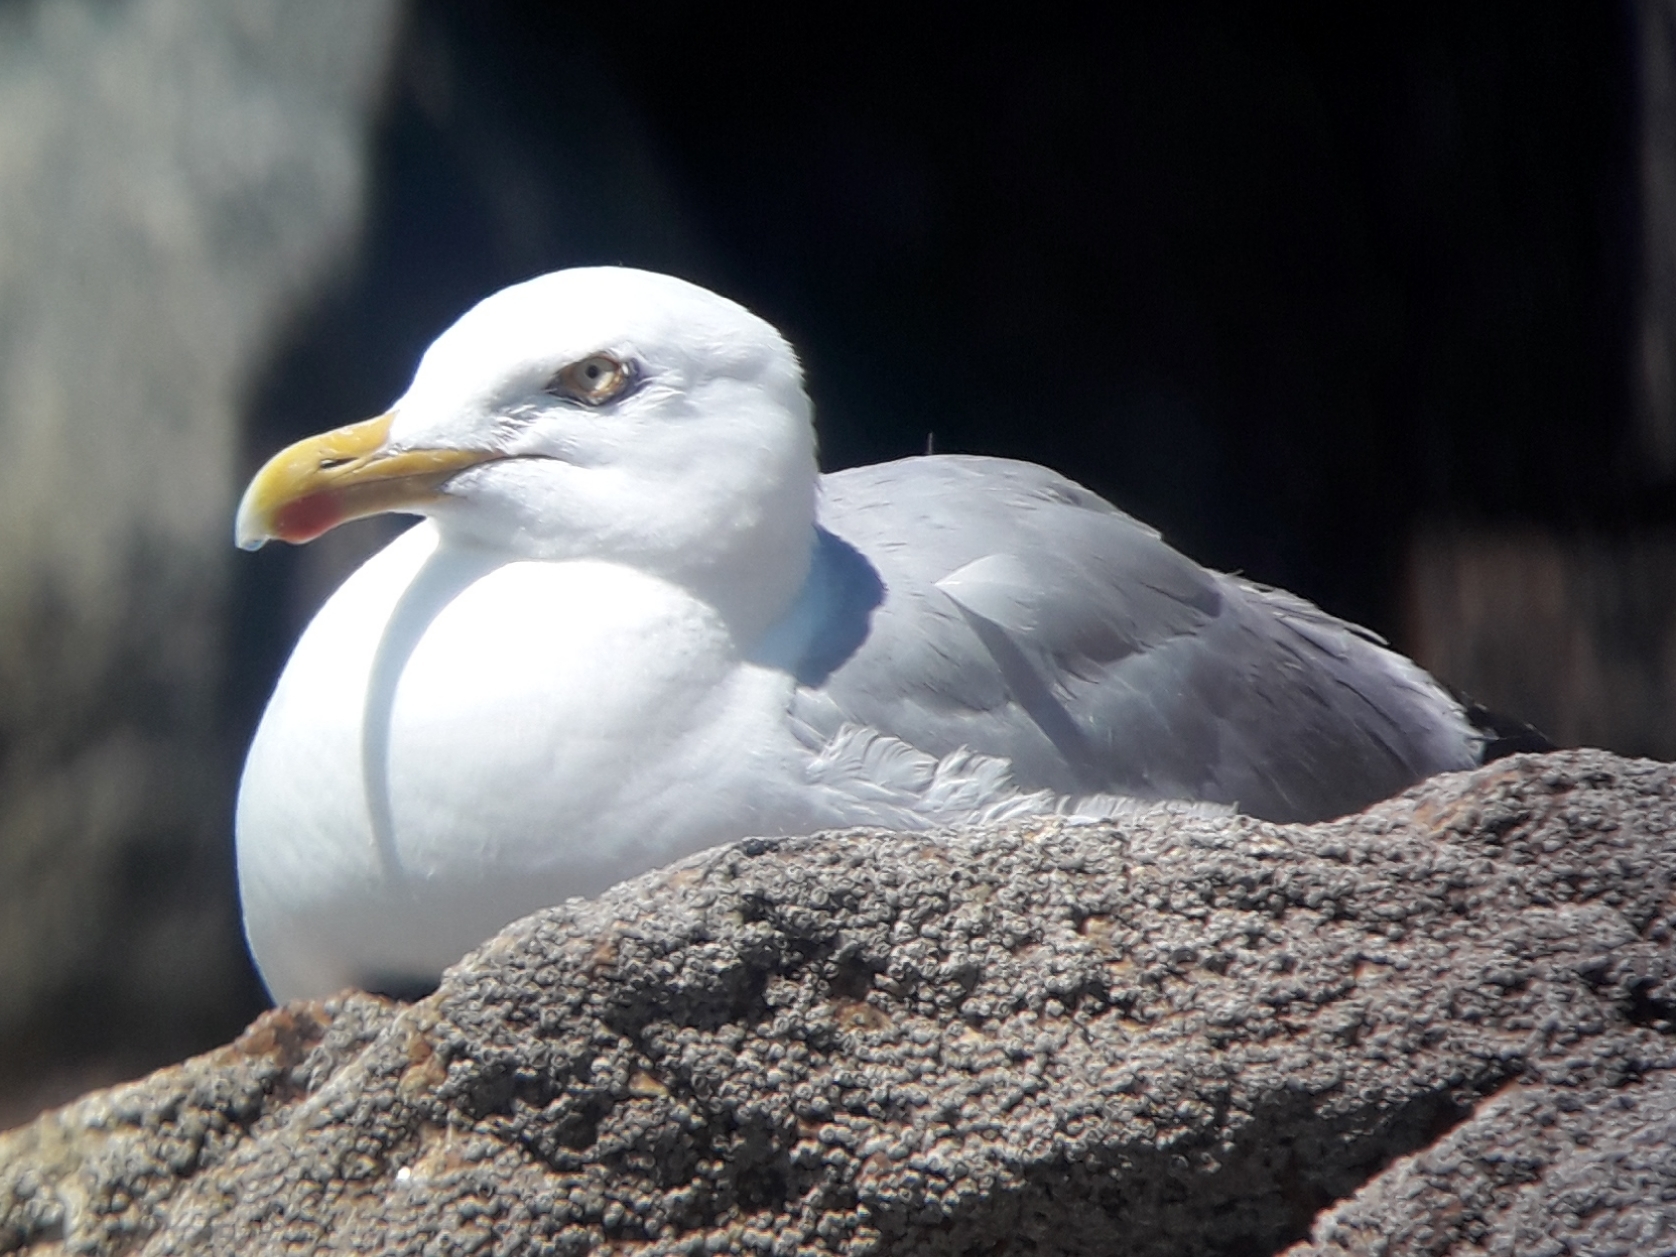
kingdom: Animalia
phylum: Chordata
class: Aves
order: Charadriiformes
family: Laridae
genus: Larus
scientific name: Larus argentatus
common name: Herring gull
